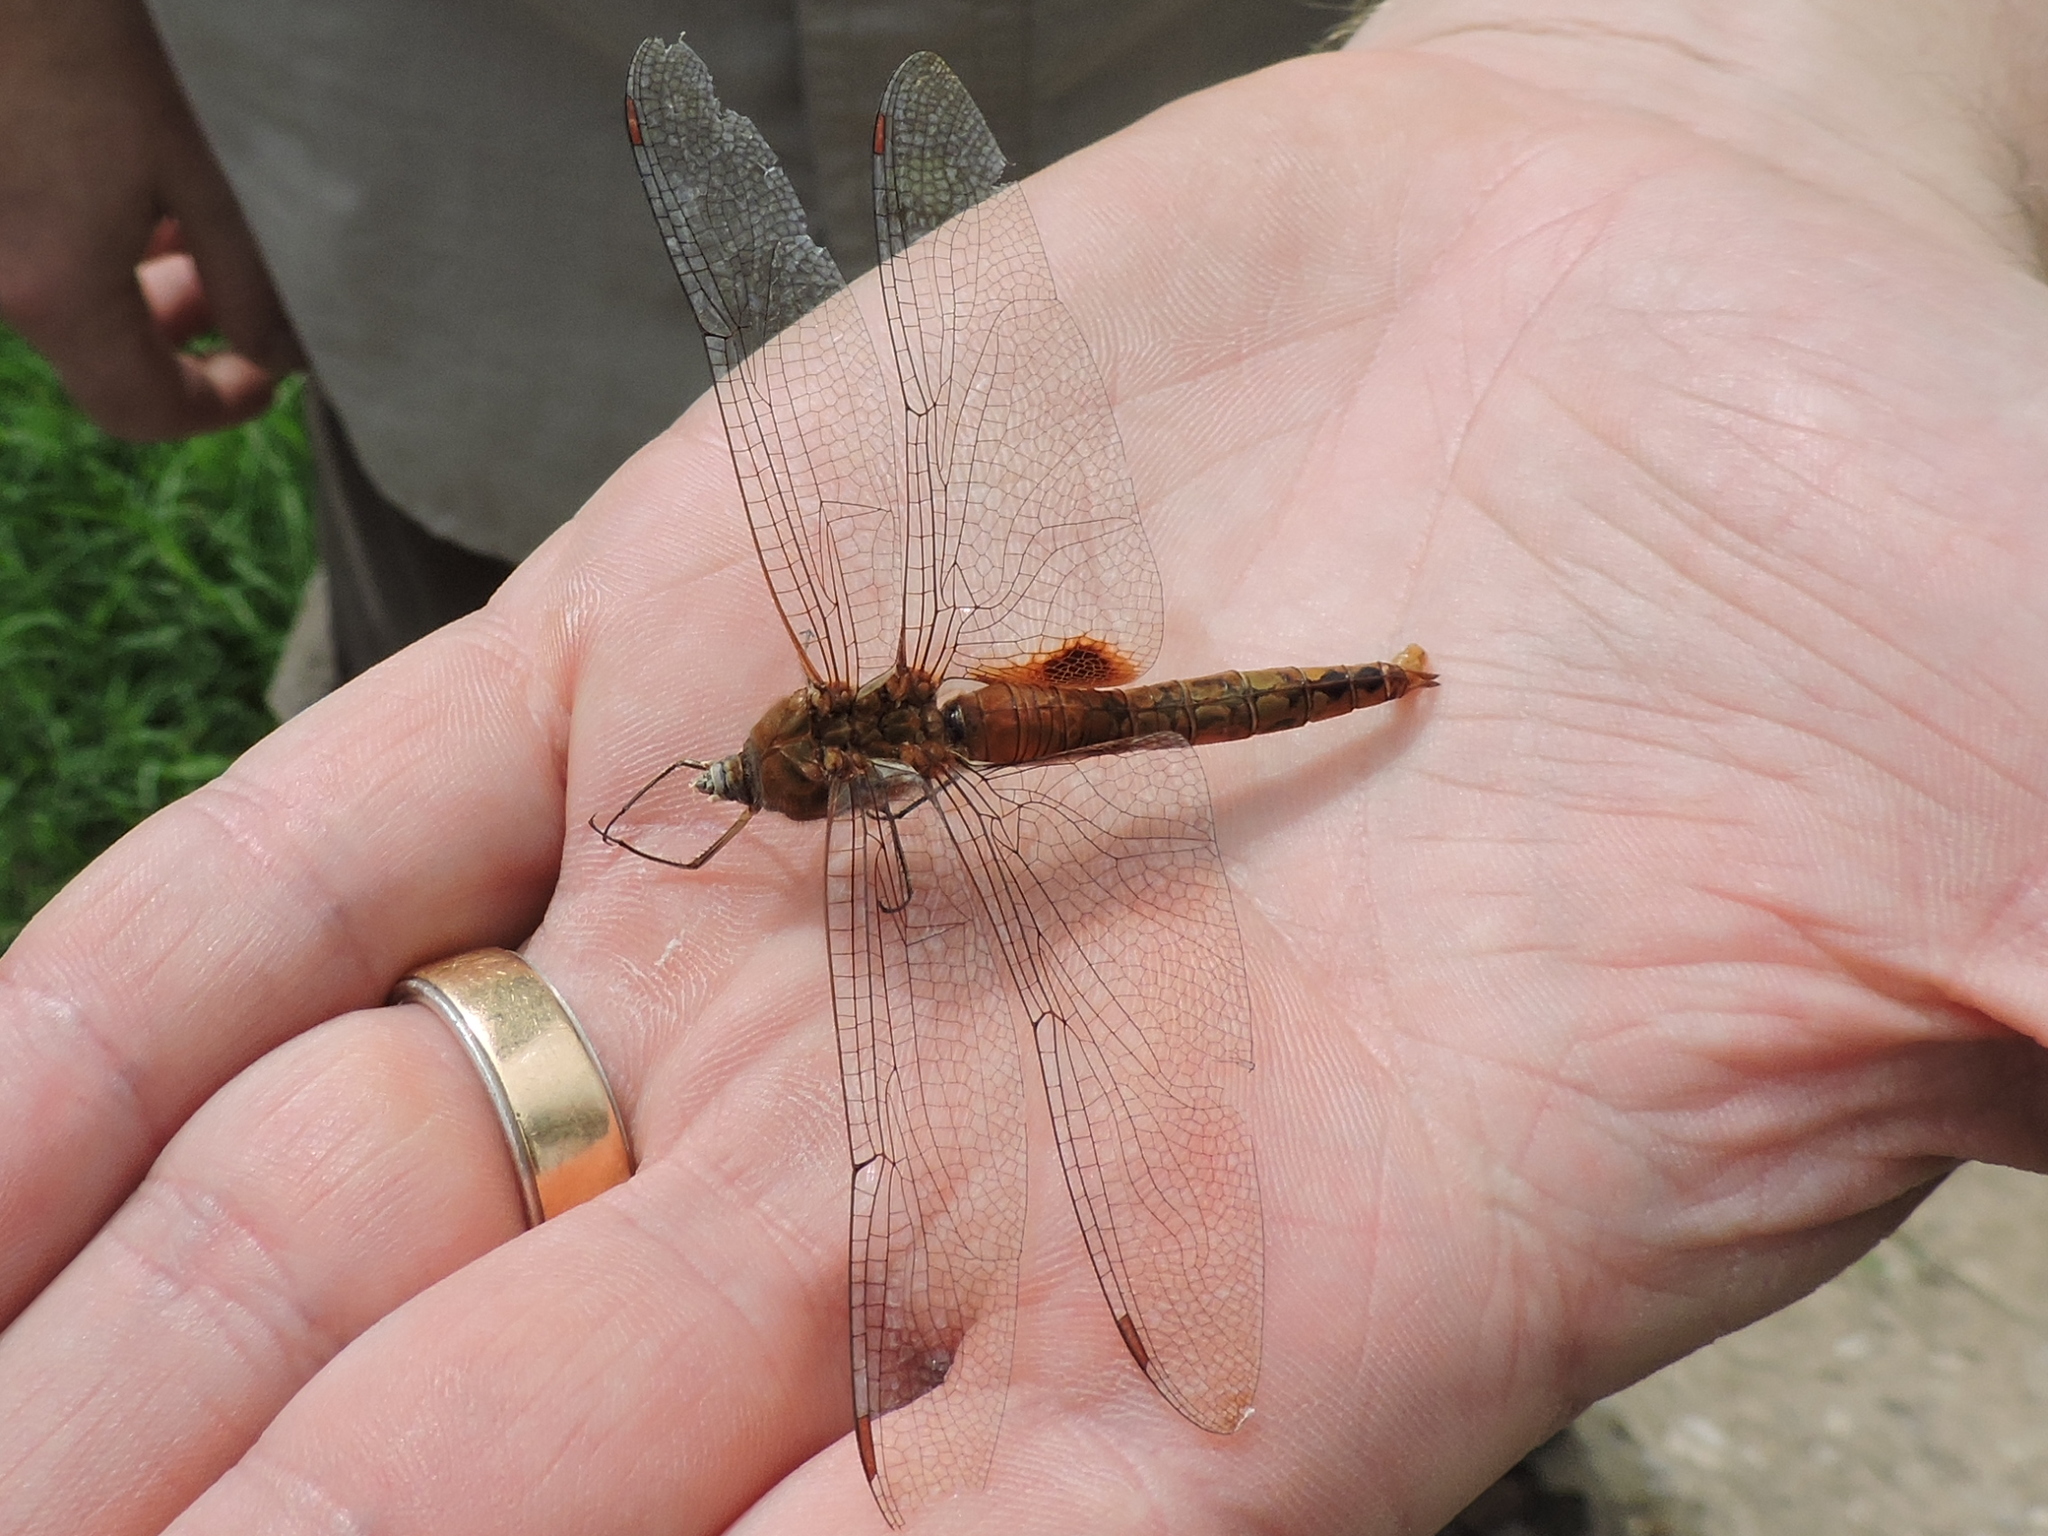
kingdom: Animalia
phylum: Arthropoda
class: Insecta
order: Odonata
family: Libellulidae
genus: Pantala
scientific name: Pantala hymenaea
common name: Spot-winged glider
